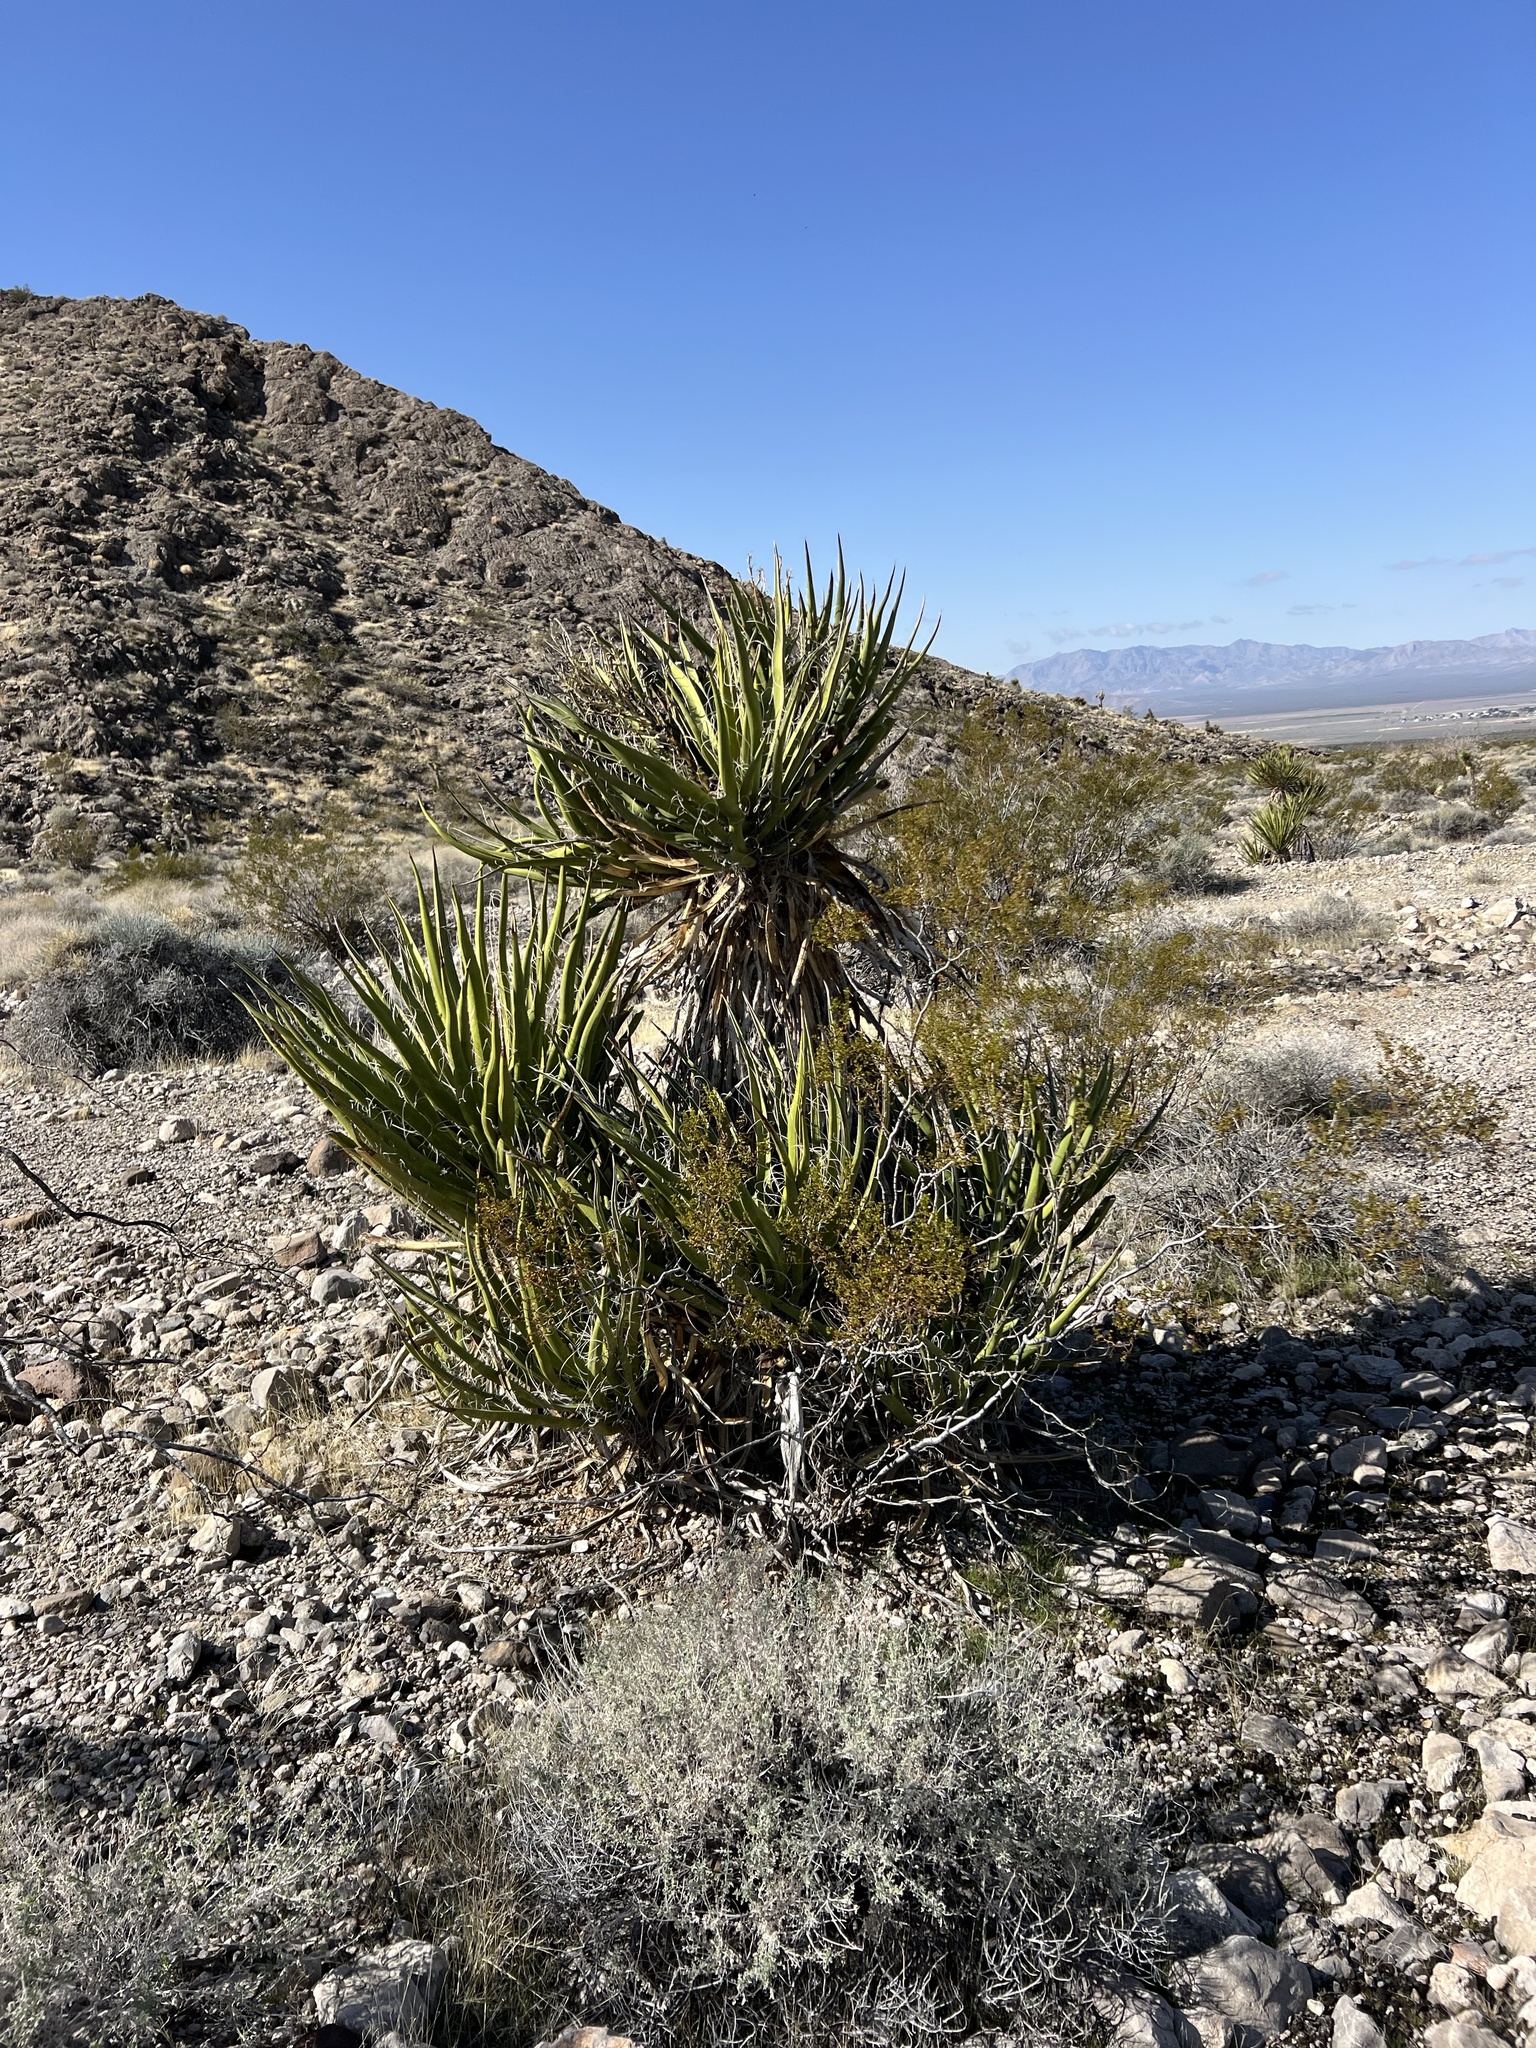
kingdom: Plantae
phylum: Tracheophyta
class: Liliopsida
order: Asparagales
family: Asparagaceae
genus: Yucca
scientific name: Yucca schidigera
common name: Mojave yucca
